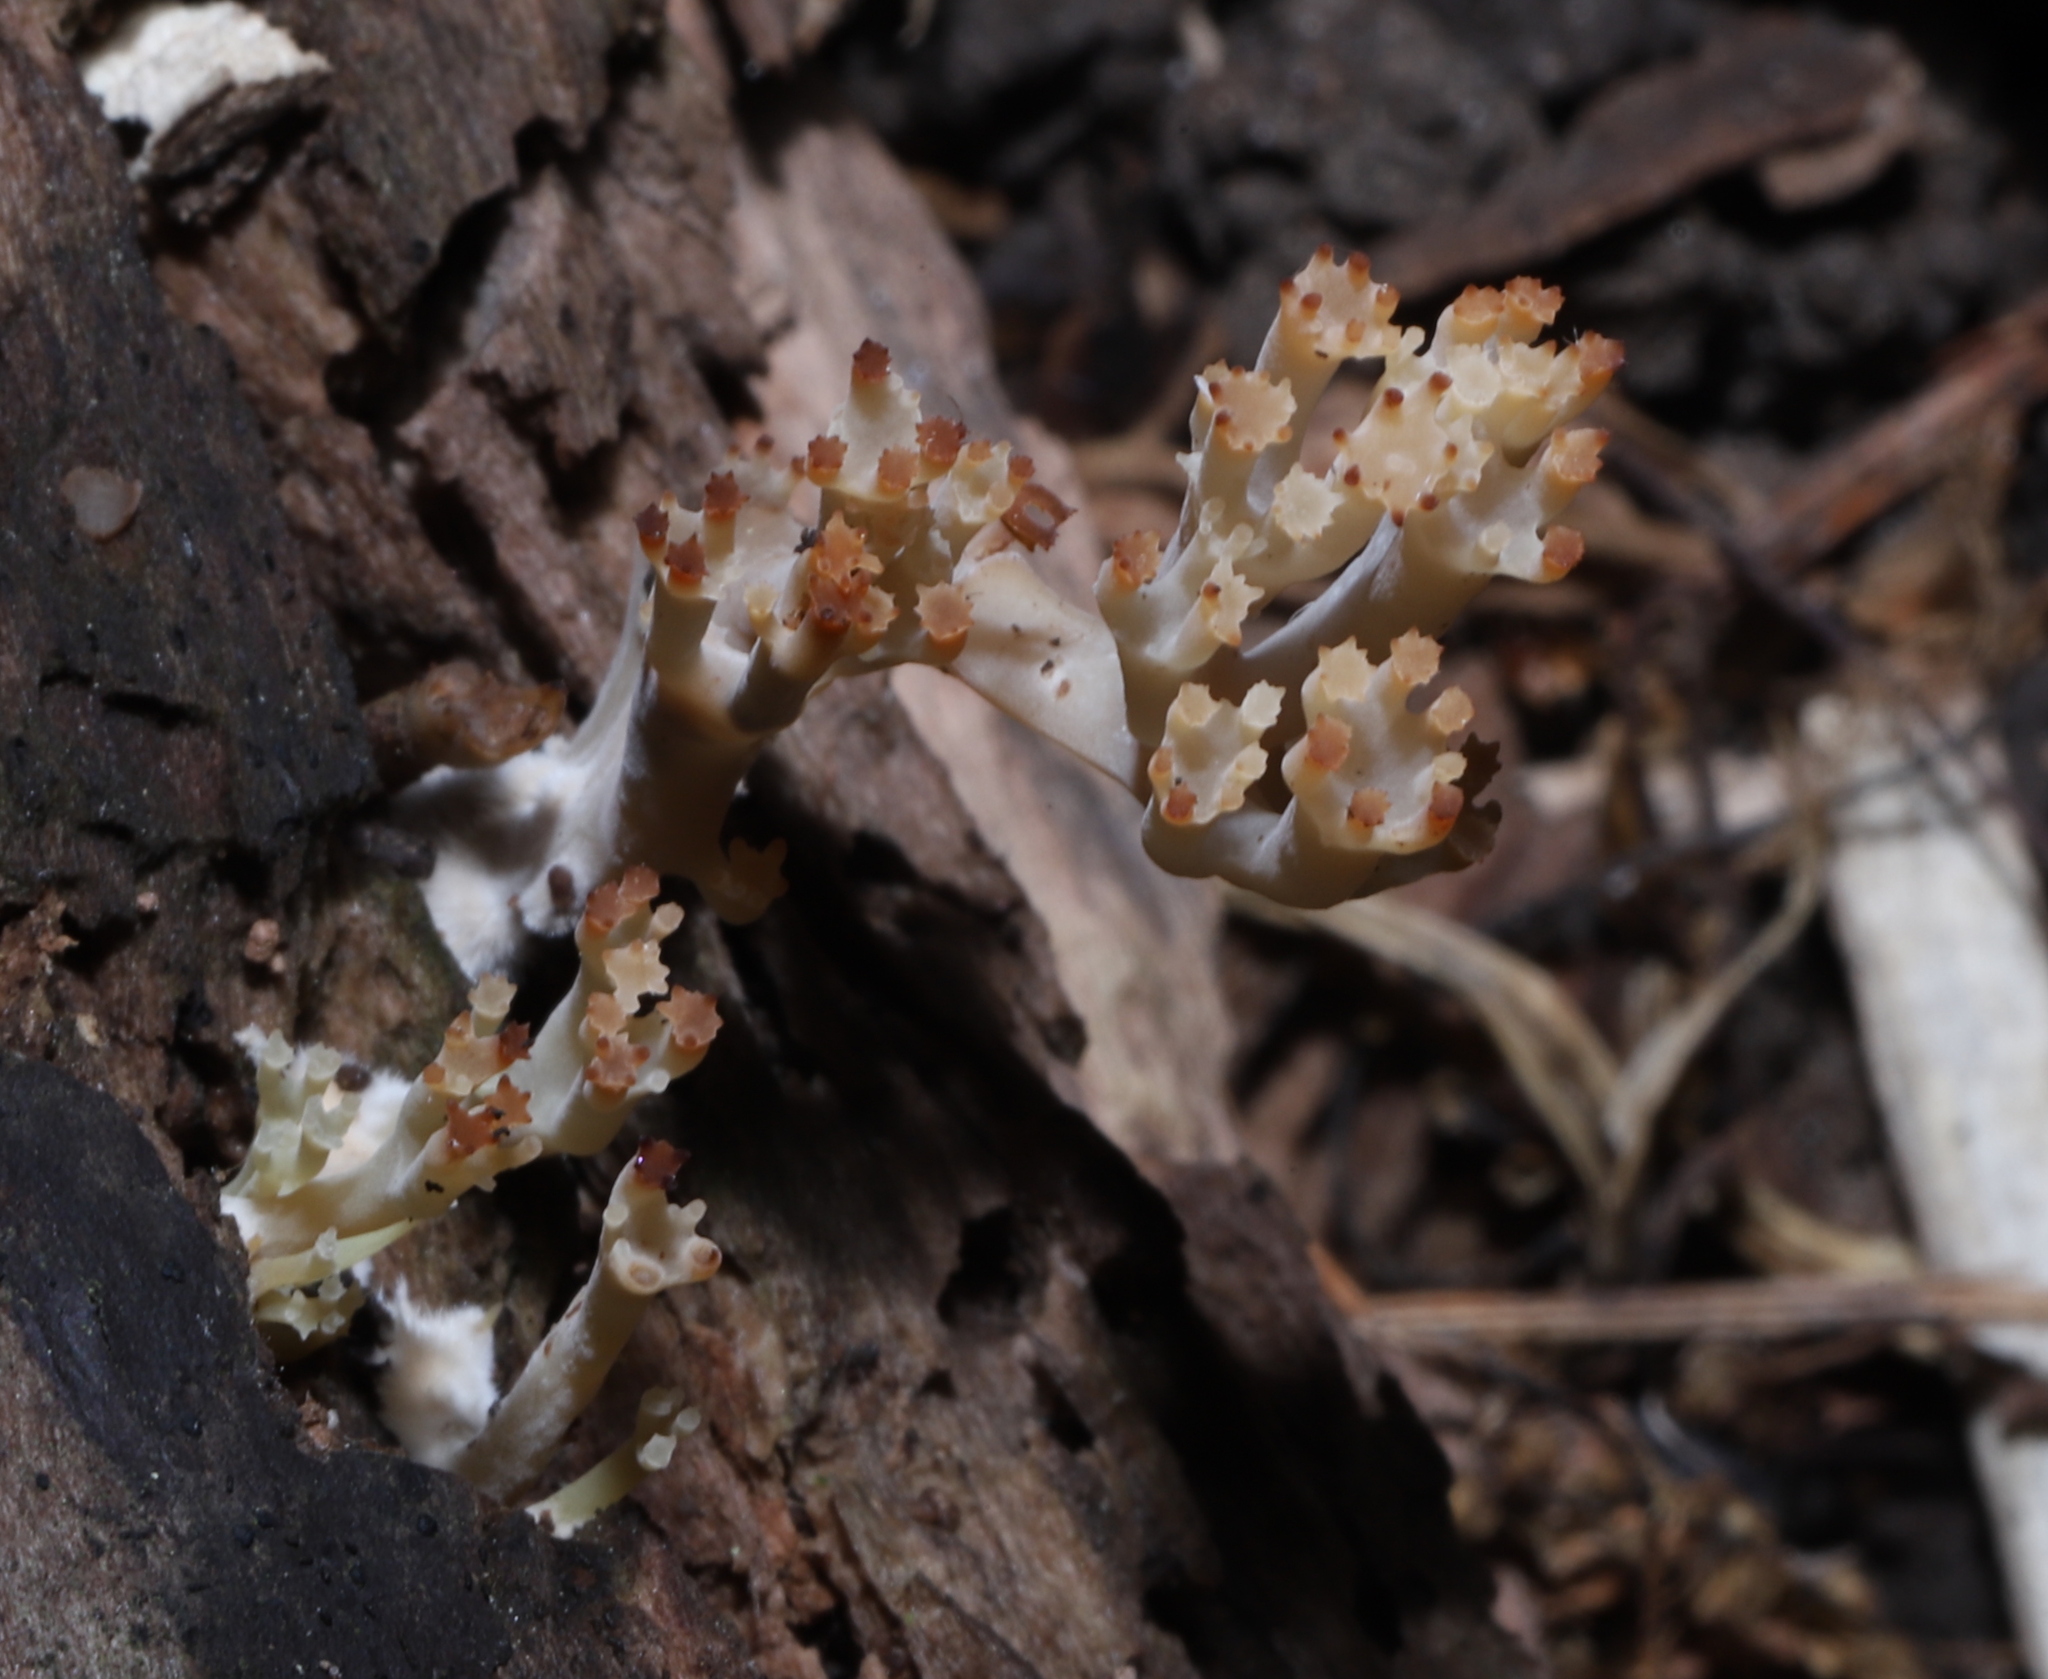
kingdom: Fungi
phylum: Basidiomycota
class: Agaricomycetes
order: Russulales
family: Auriscalpiaceae
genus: Artomyces
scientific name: Artomyces pyxidatus
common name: Crown-tipped coral fungus
